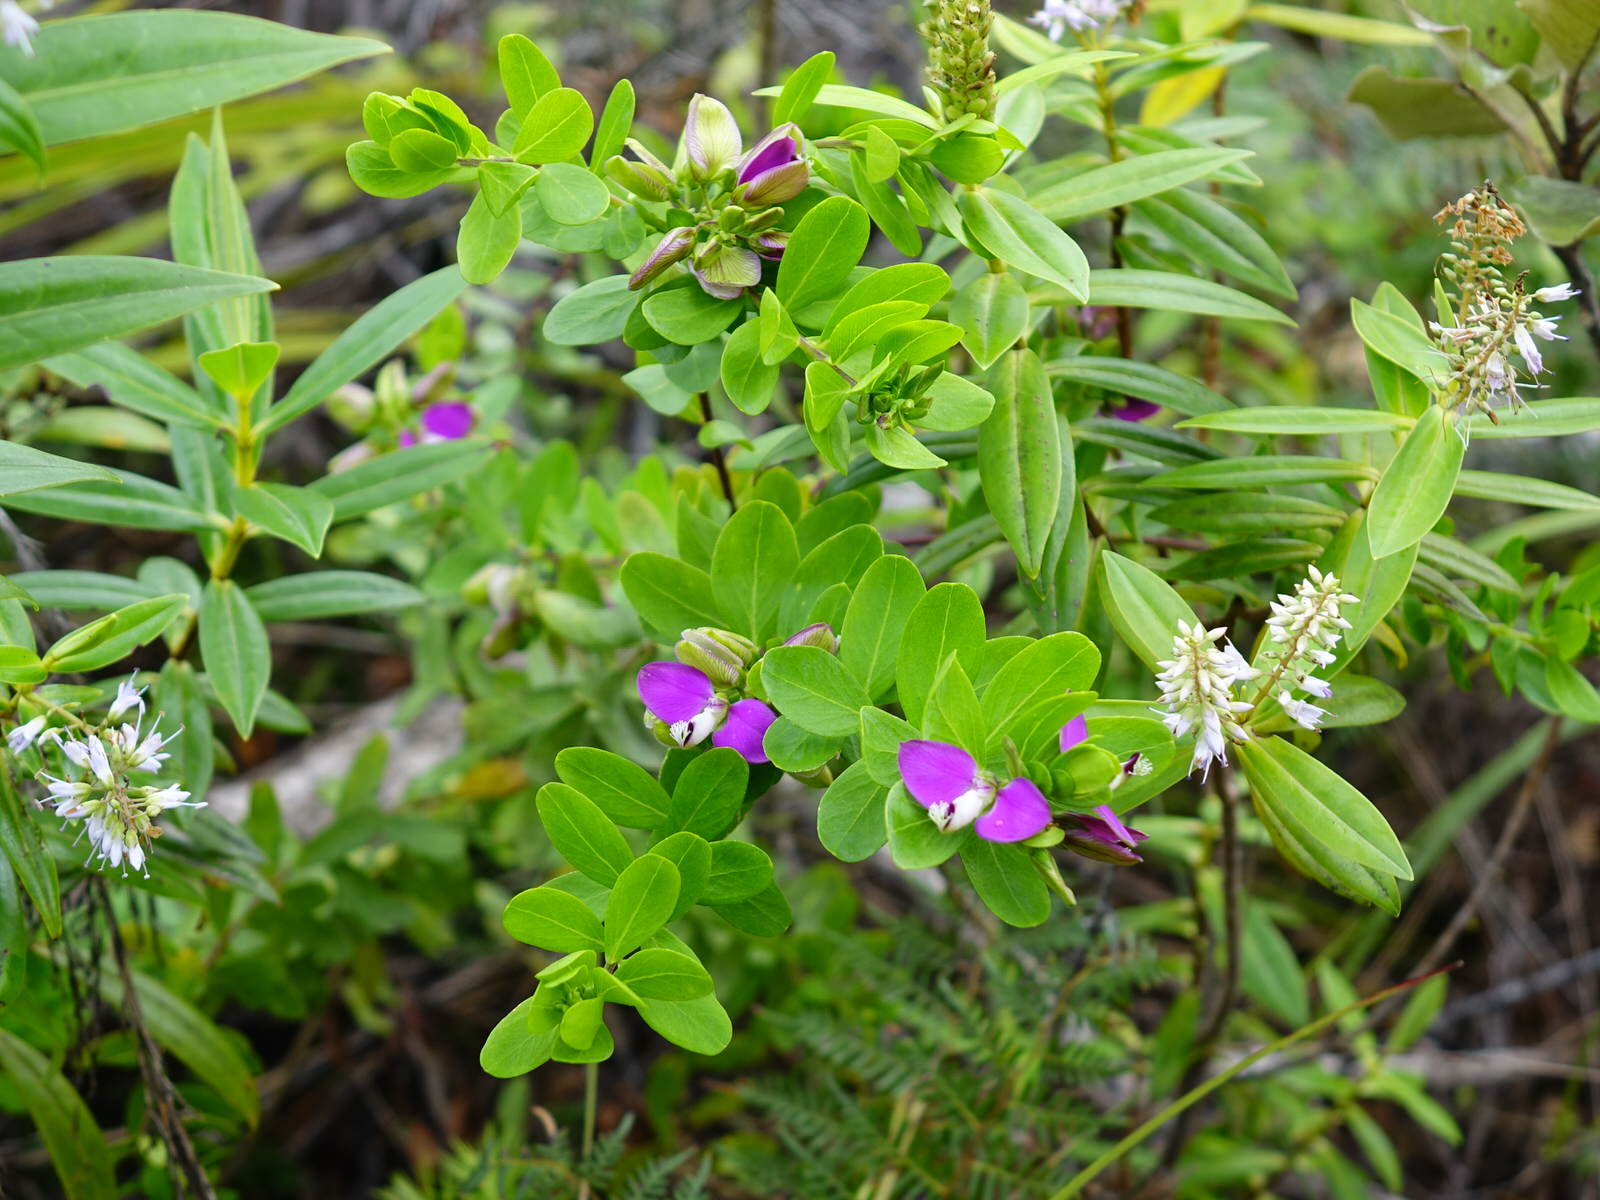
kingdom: Plantae
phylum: Tracheophyta
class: Magnoliopsida
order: Fabales
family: Polygalaceae
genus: Polygala
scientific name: Polygala myrtifolia
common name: Myrtle-leaf milkwort
